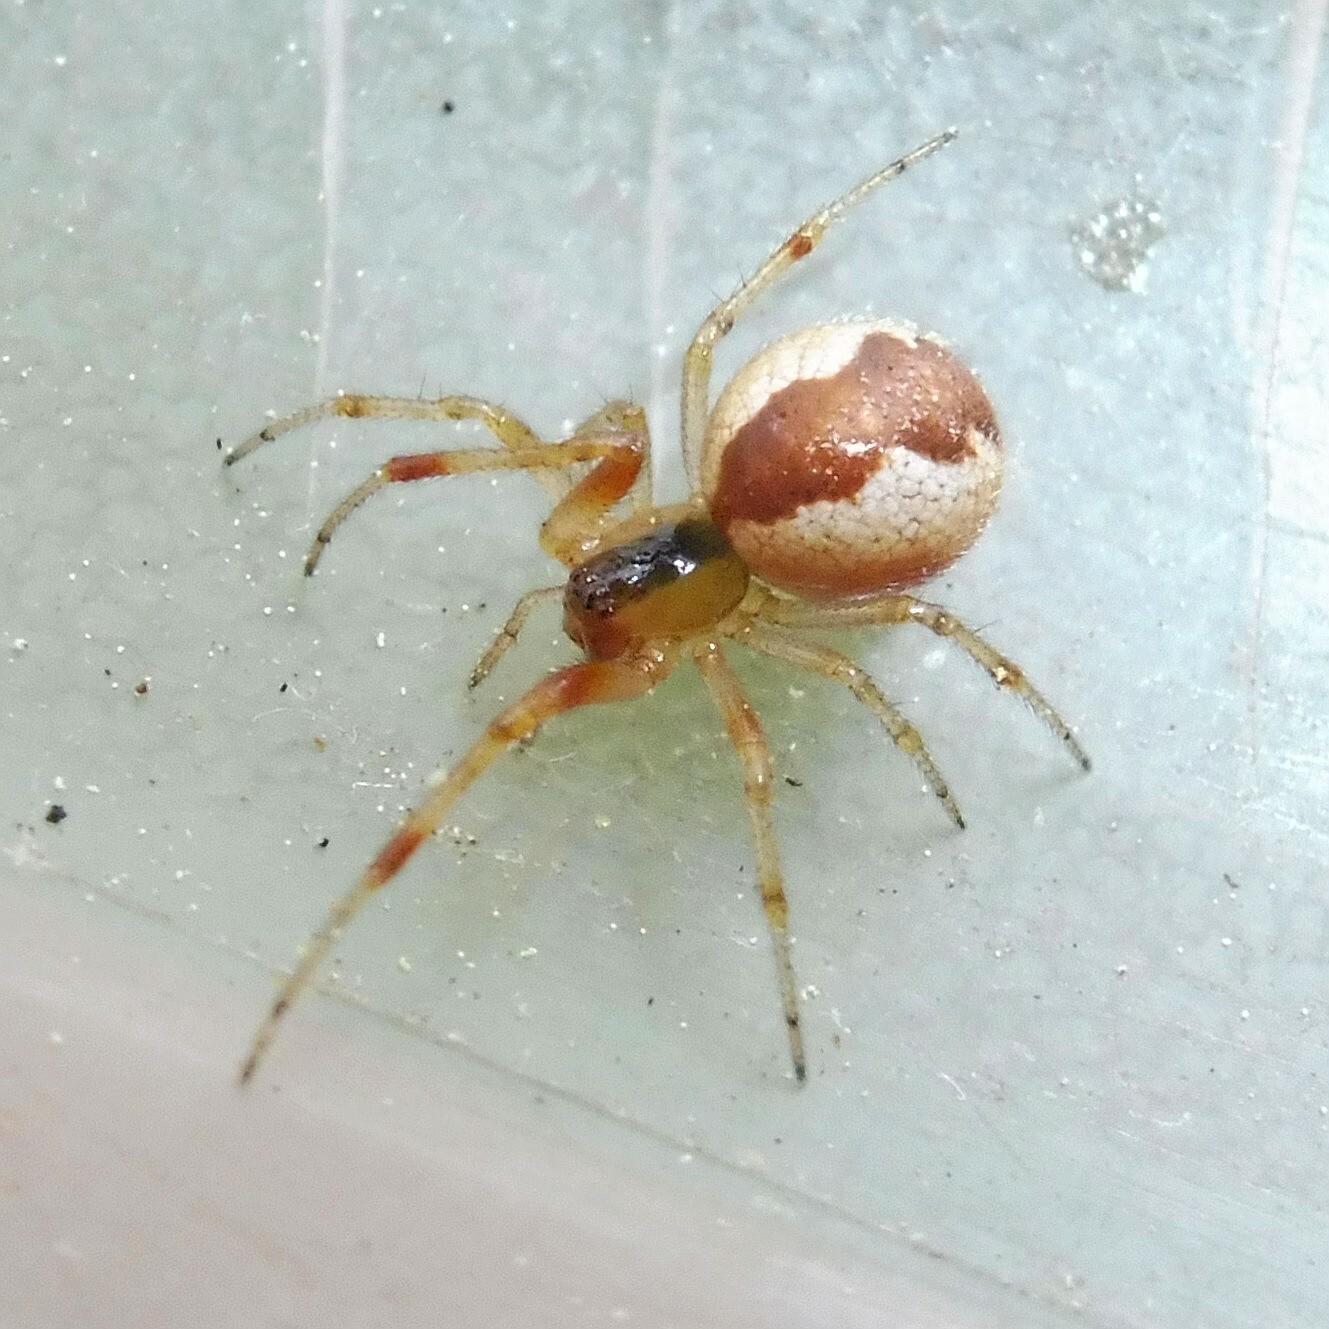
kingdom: Animalia
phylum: Arthropoda
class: Arachnida
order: Araneae
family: Theridiidae
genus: Anelosimus
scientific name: Anelosimus vittatus
